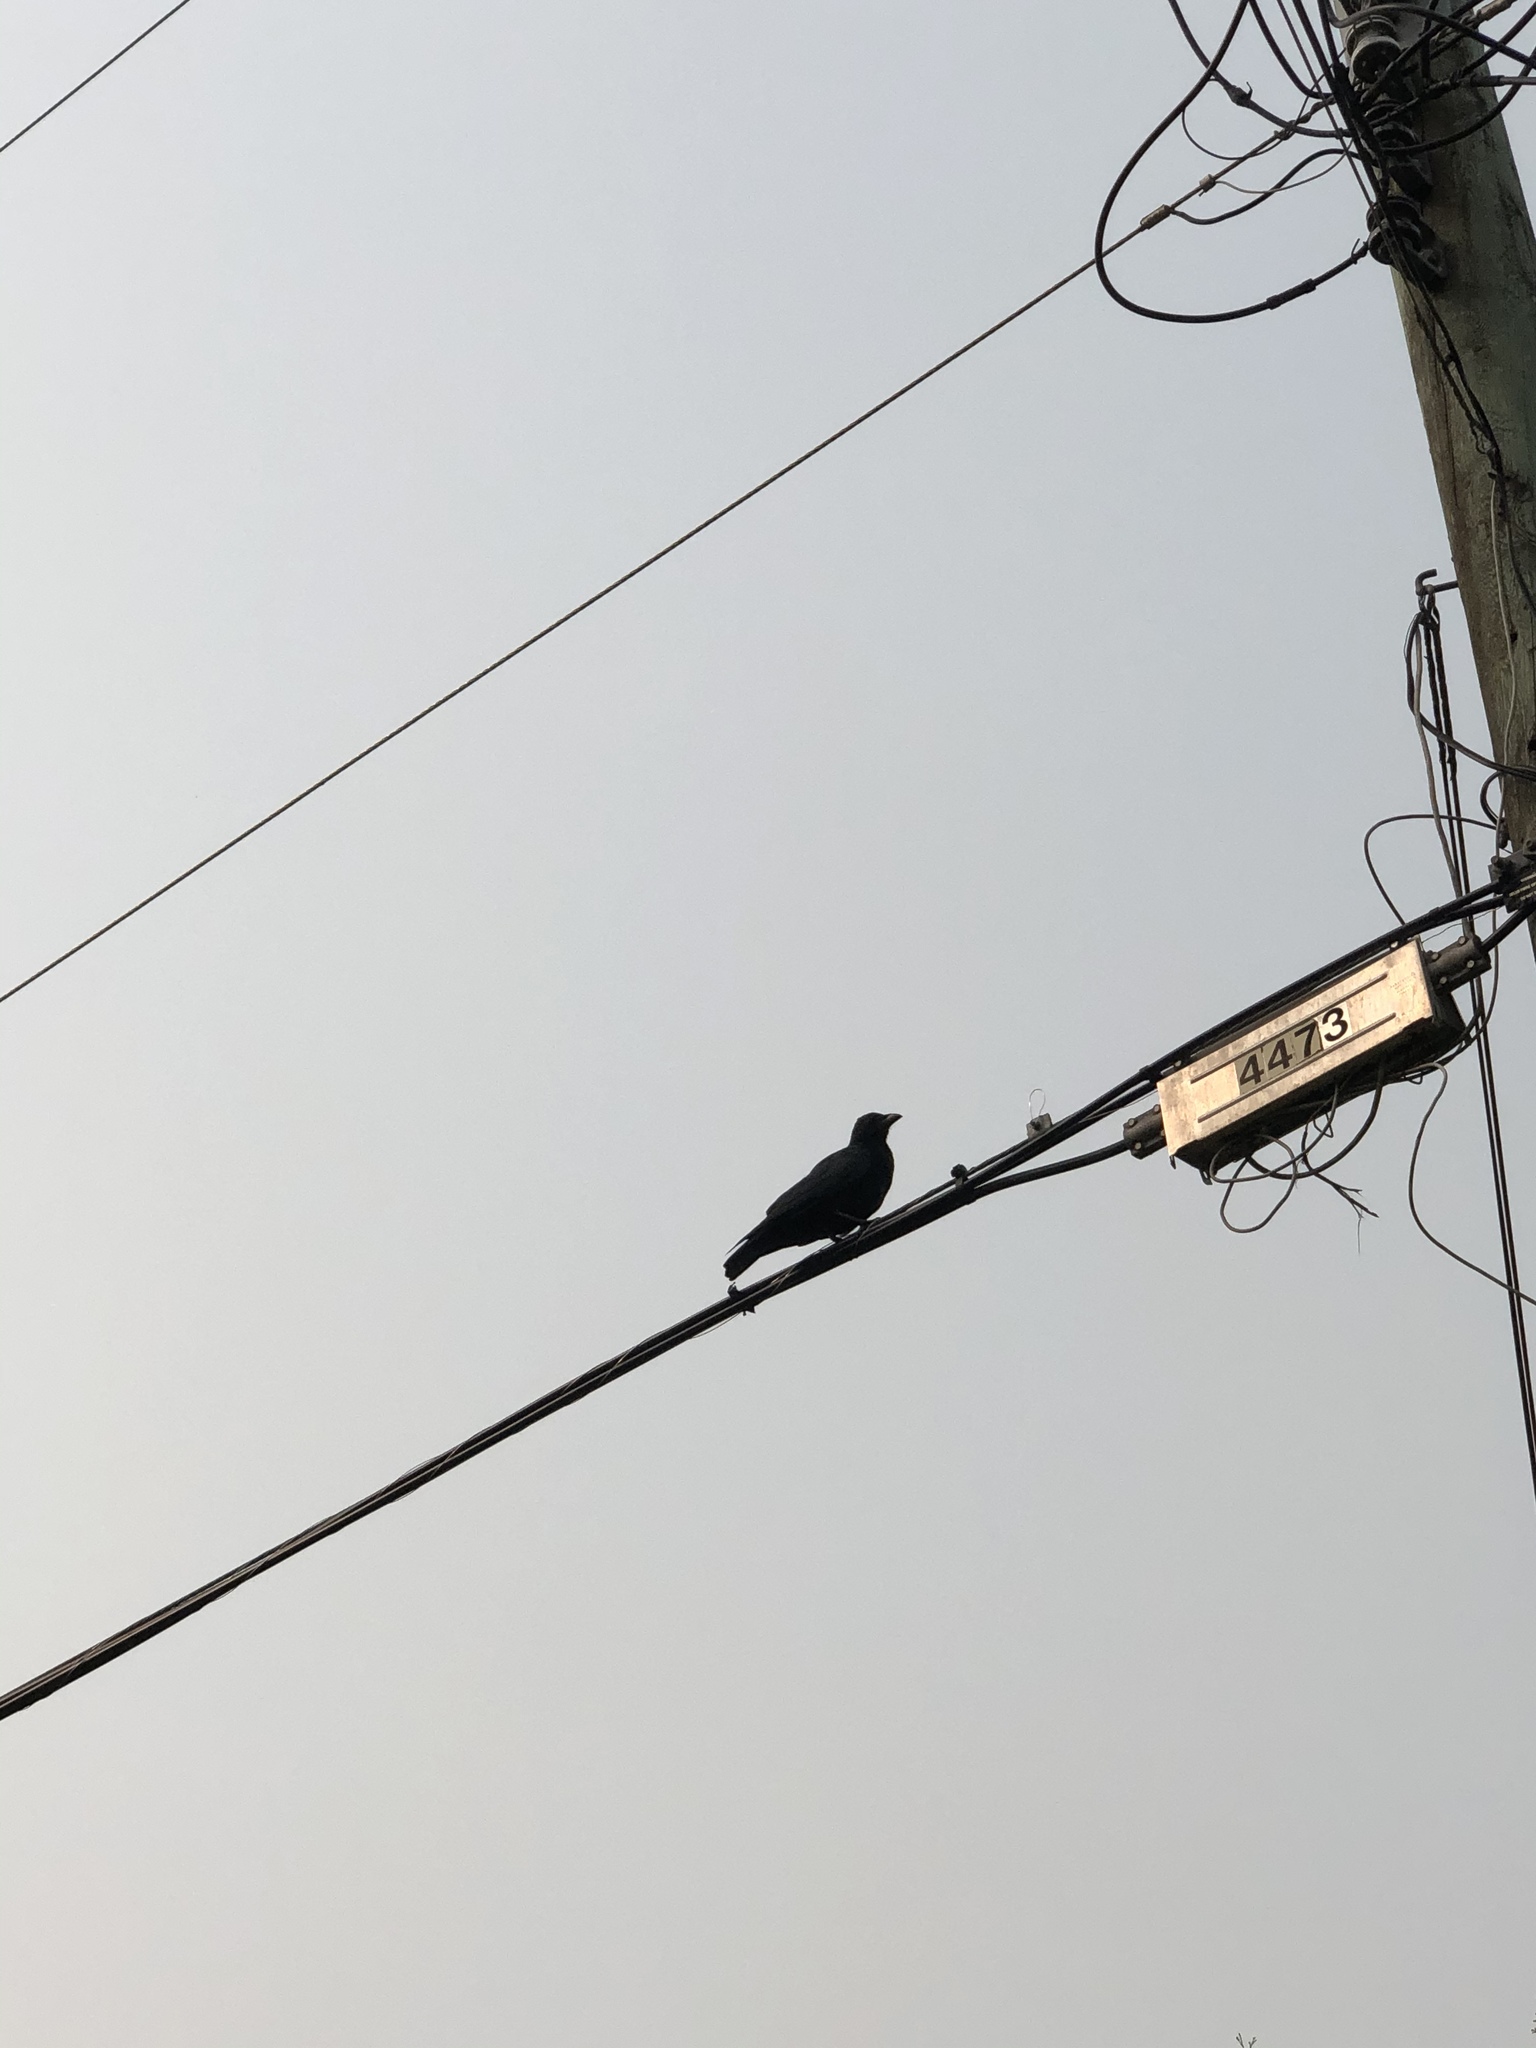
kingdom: Animalia
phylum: Chordata
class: Aves
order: Passeriformes
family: Corvidae
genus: Corvus
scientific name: Corvus brachyrhynchos
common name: American crow
